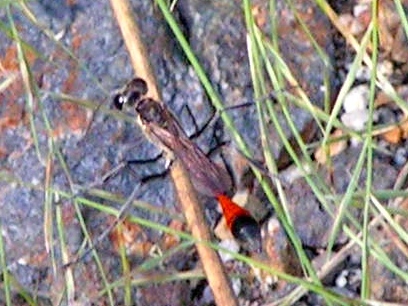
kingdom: Animalia
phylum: Arthropoda
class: Insecta
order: Hymenoptera
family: Sphecidae
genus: Ammophila
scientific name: Ammophila
